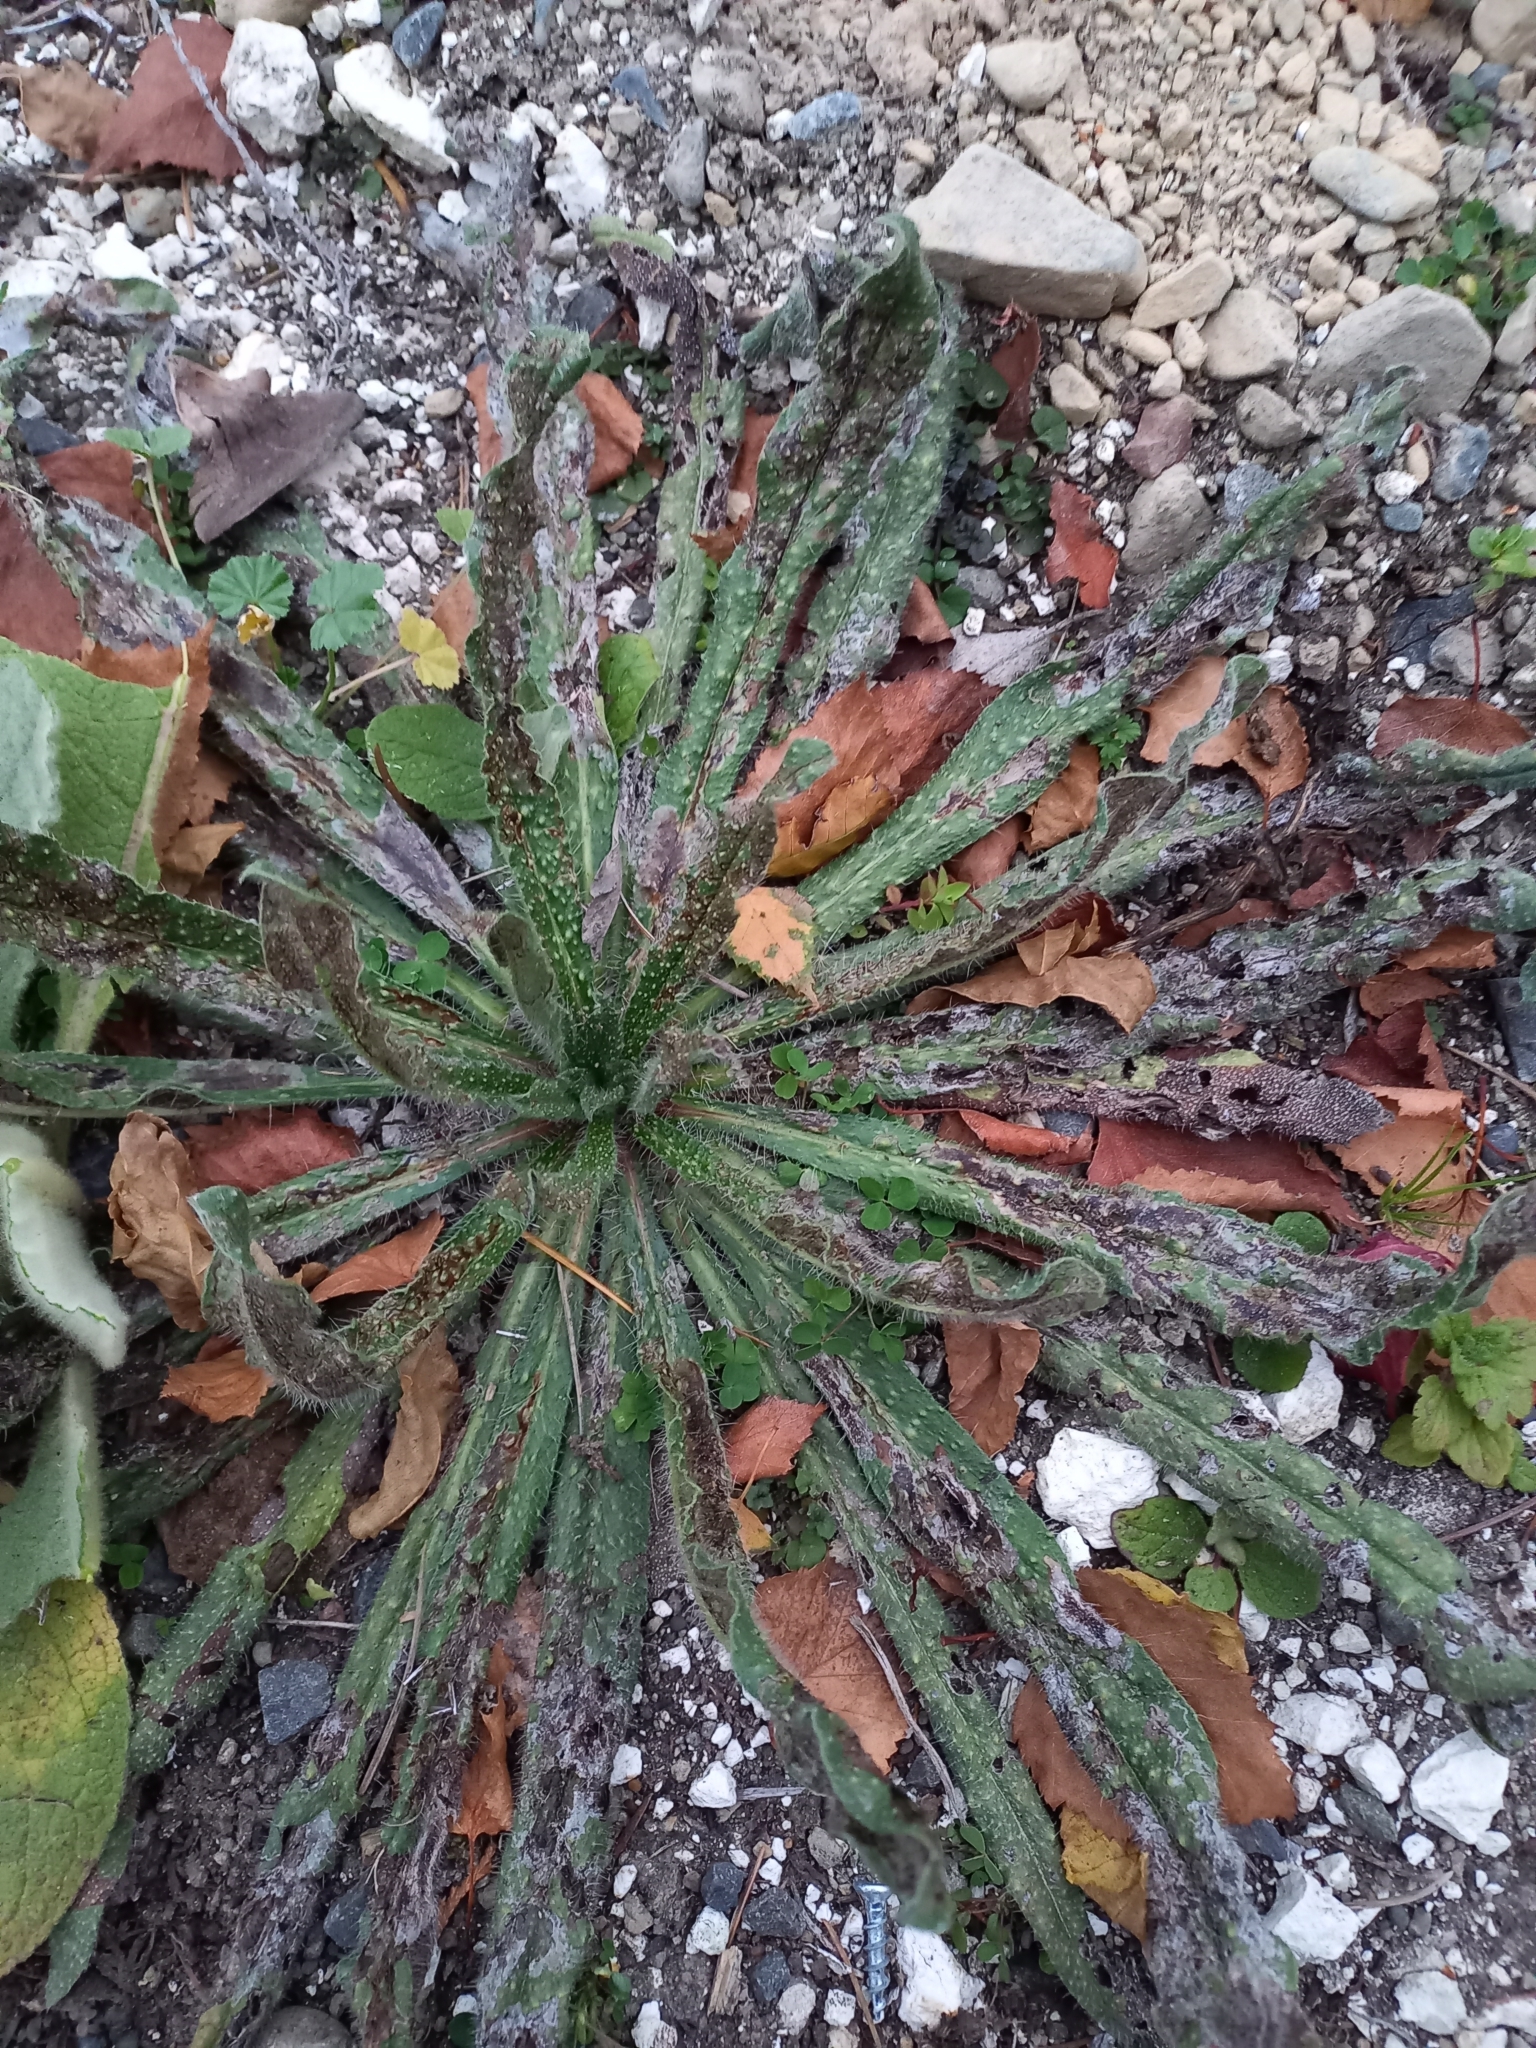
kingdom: Plantae
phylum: Tracheophyta
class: Magnoliopsida
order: Boraginales
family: Boraginaceae
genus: Echium
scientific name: Echium vulgare
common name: Common viper's bugloss
